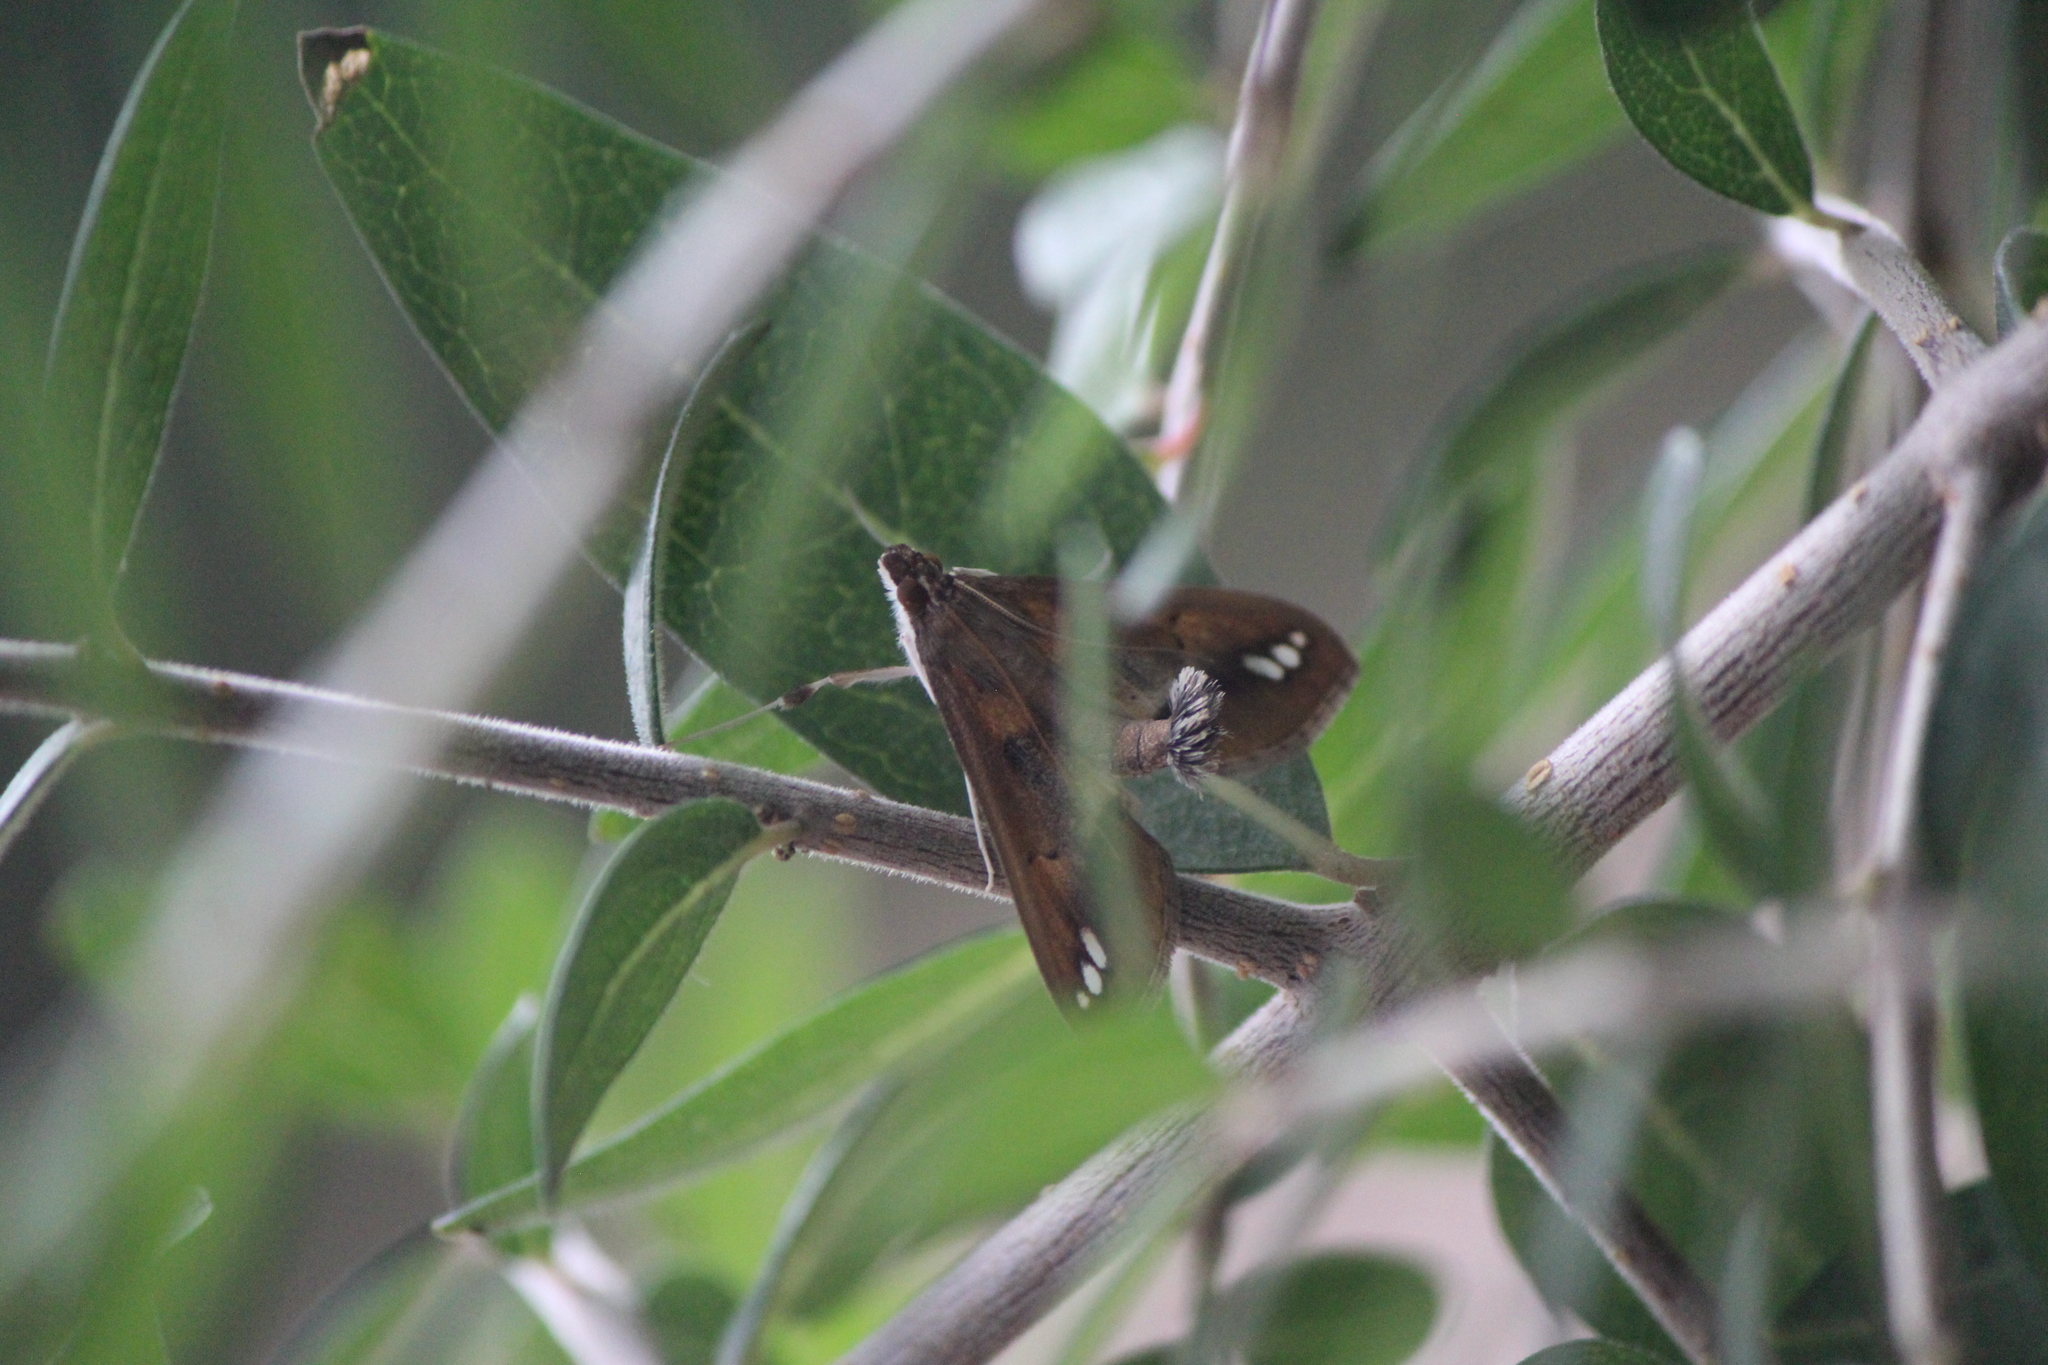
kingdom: Animalia
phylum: Arthropoda
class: Insecta
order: Lepidoptera
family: Crambidae
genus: Diaphania
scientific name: Diaphania
